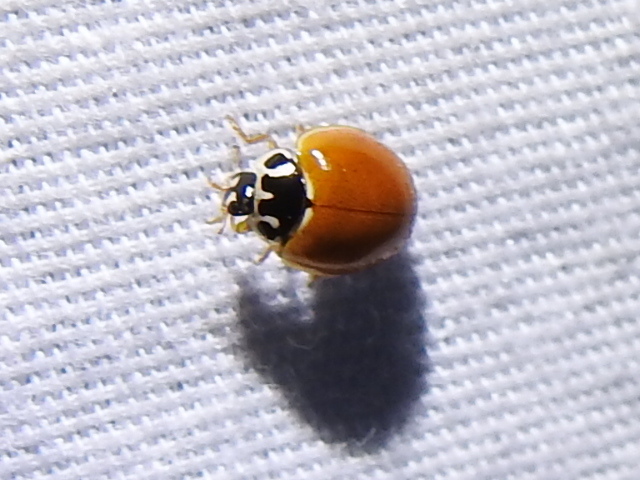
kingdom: Animalia
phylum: Arthropoda
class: Insecta
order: Coleoptera
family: Coccinellidae
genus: Cycloneda
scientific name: Cycloneda munda
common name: Polished lady beetle
